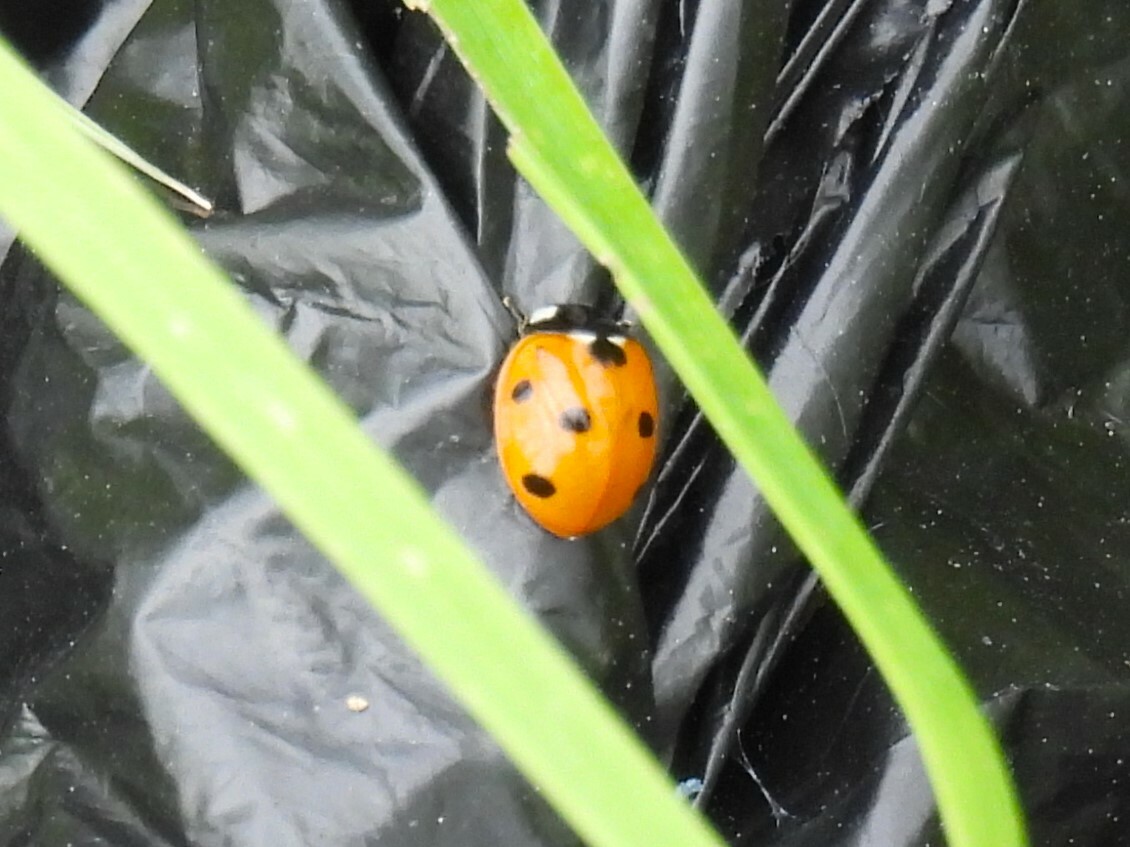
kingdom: Animalia
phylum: Arthropoda
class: Insecta
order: Coleoptera
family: Coccinellidae
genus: Coccinella
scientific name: Coccinella septempunctata
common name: Sevenspotted lady beetle
